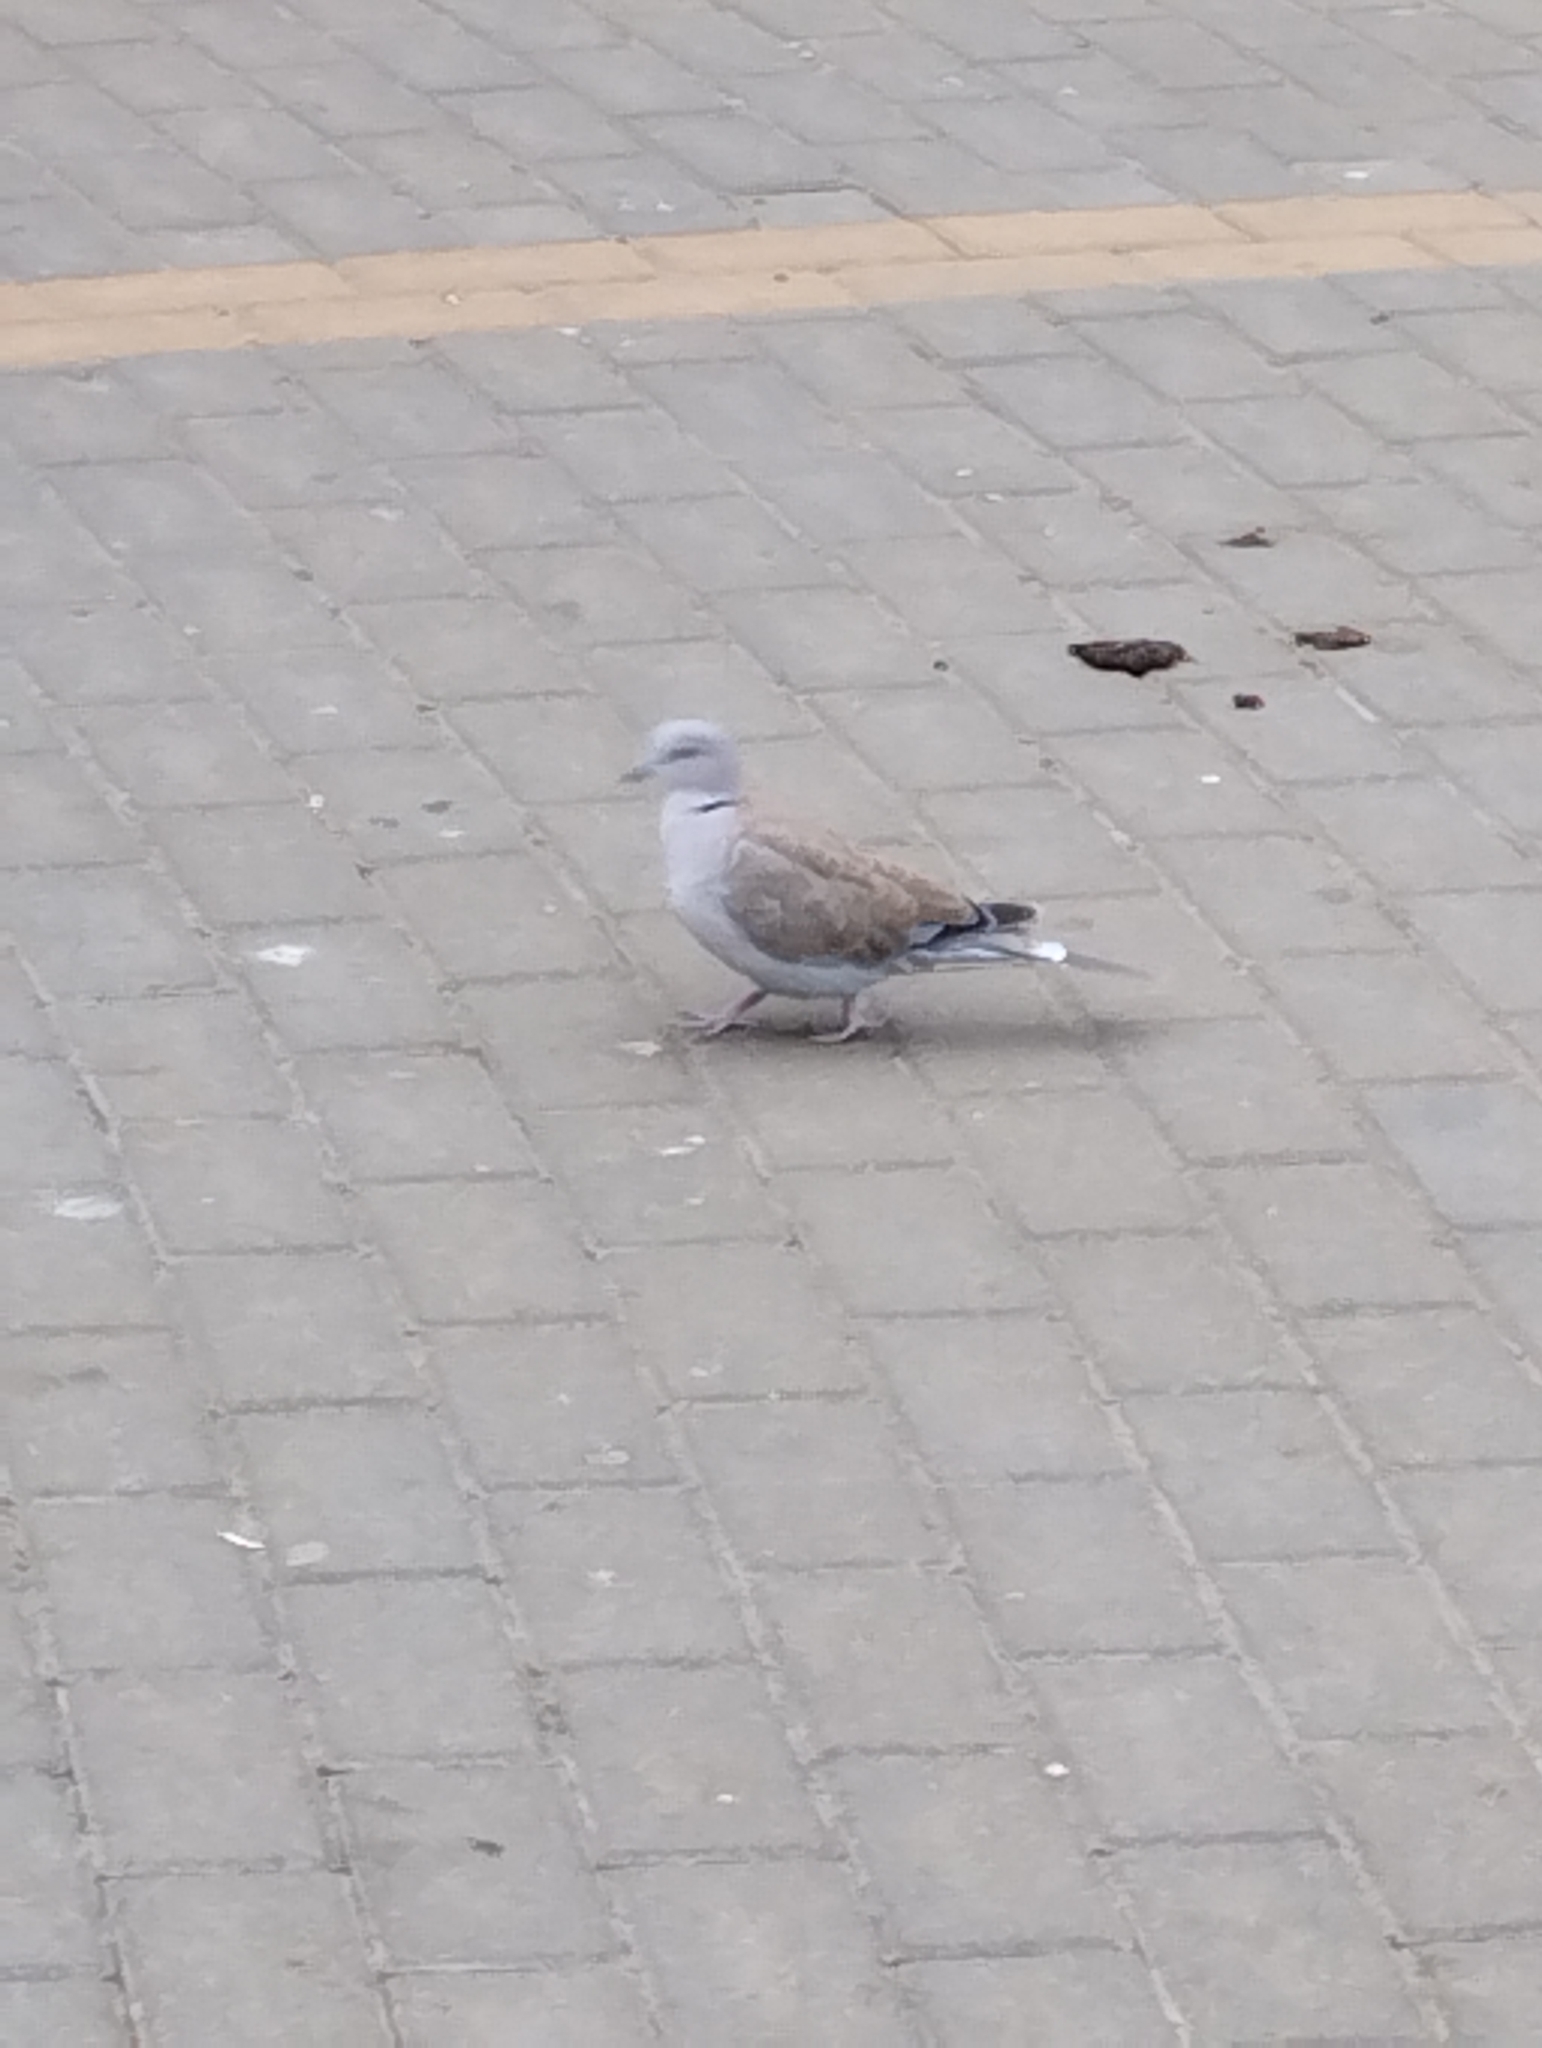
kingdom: Animalia
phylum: Chordata
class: Aves
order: Columbiformes
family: Columbidae
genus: Streptopelia
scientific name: Streptopelia decaocto
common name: Eurasian collared dove
